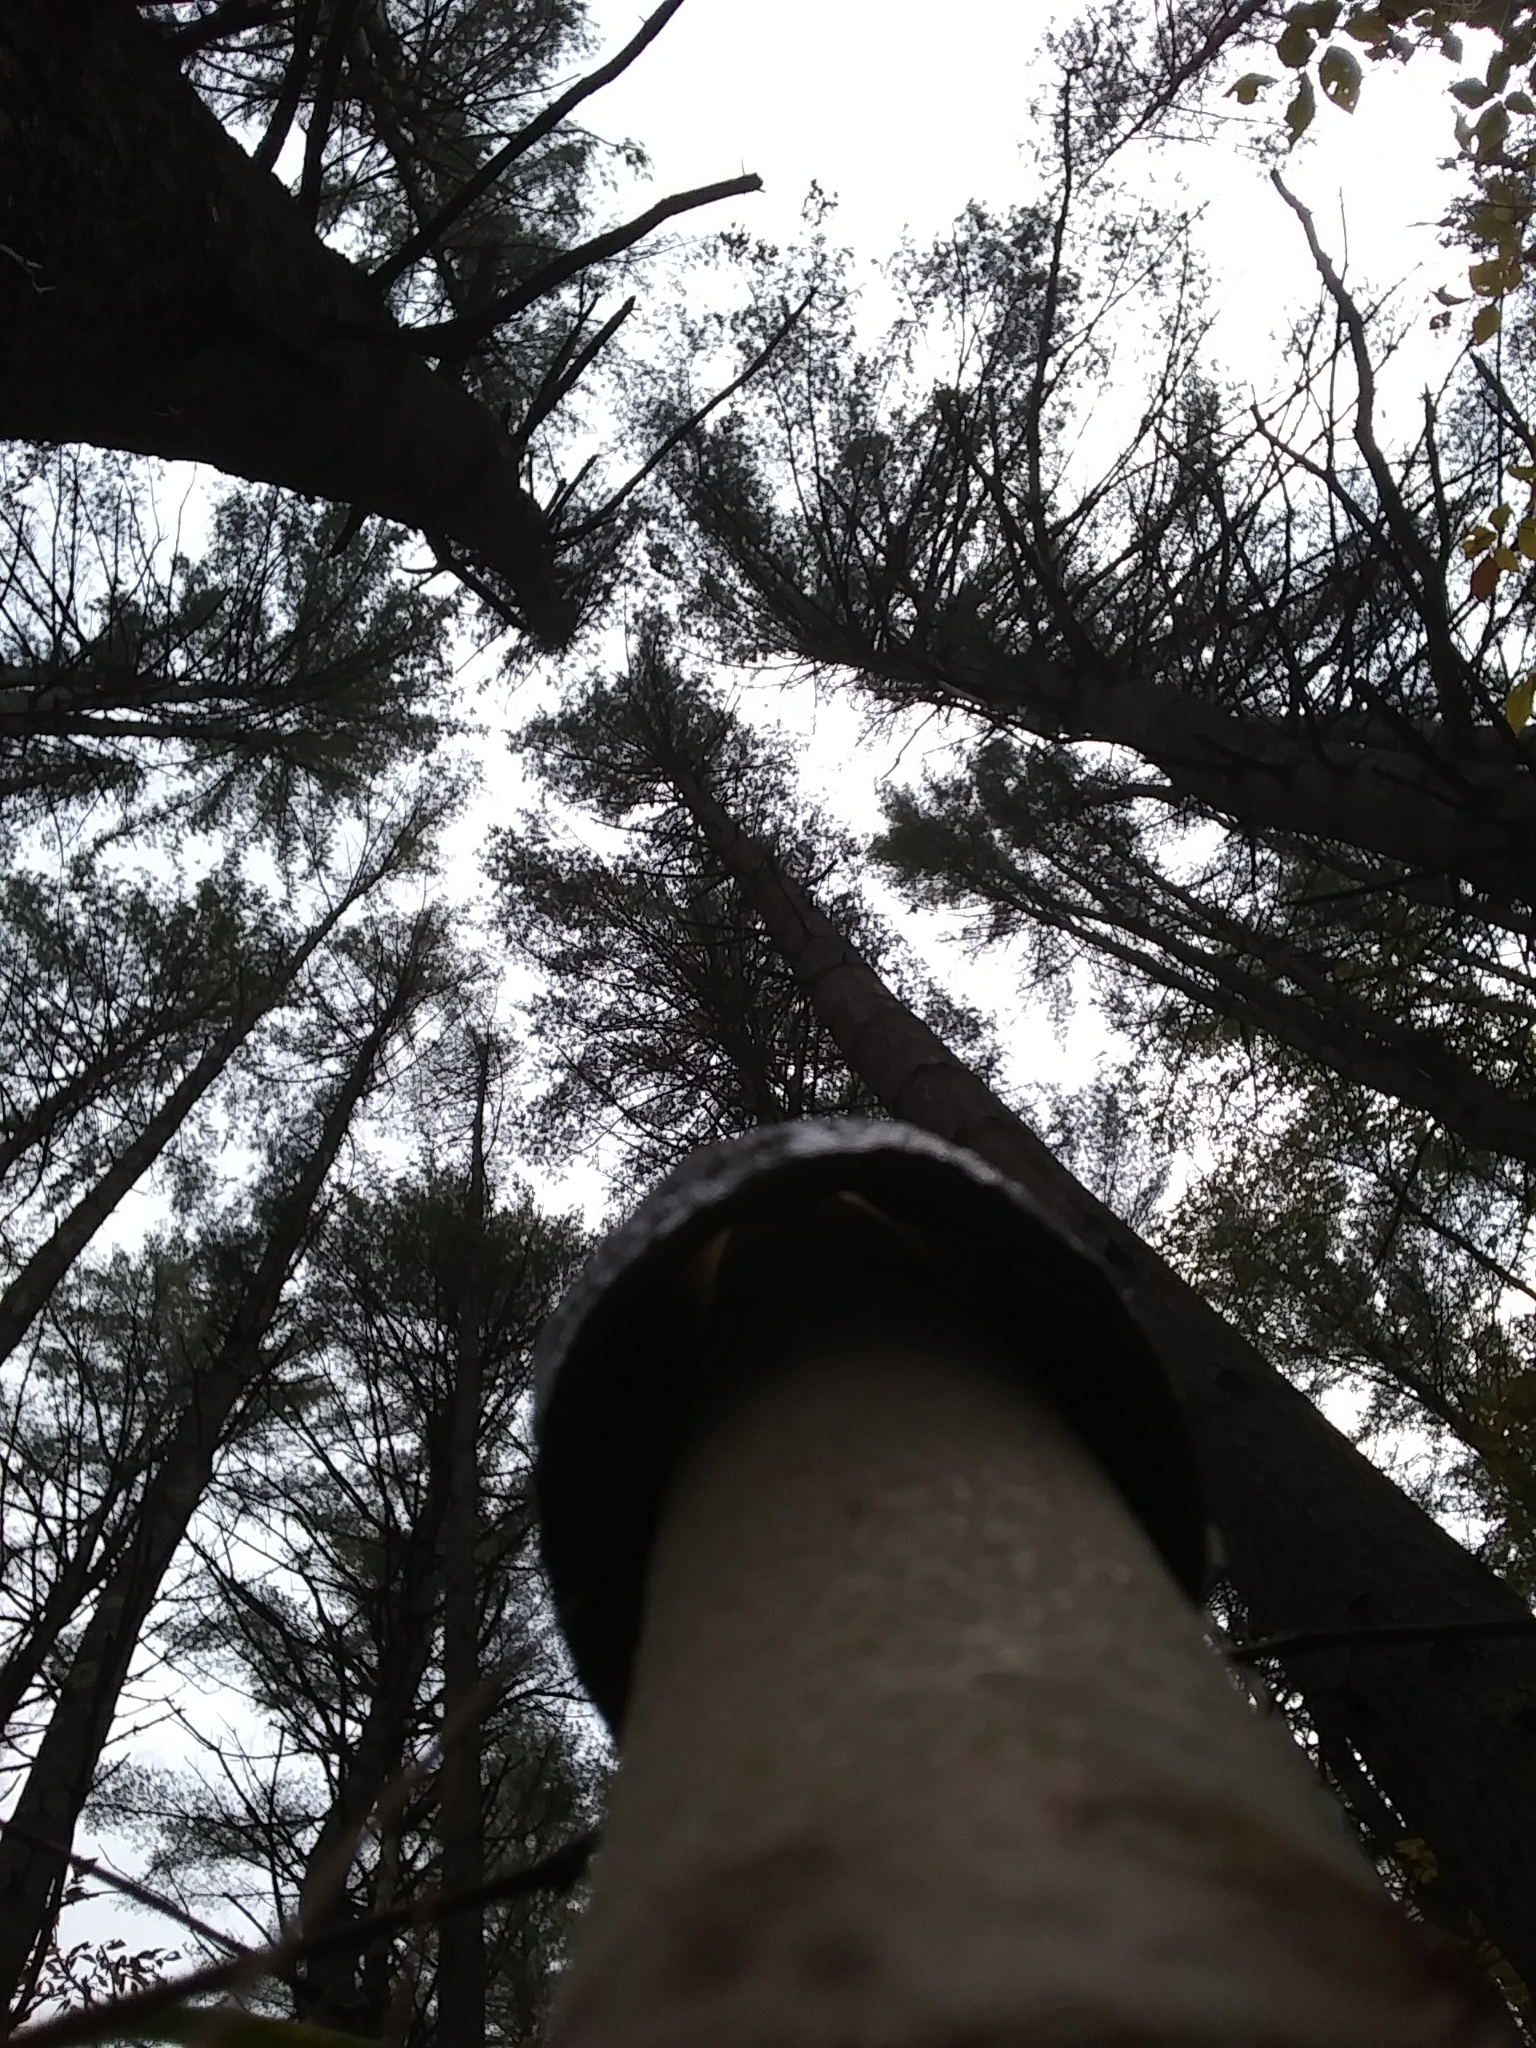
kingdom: Fungi
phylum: Basidiomycota
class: Agaricomycetes
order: Phallales
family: Phallaceae
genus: Phallus
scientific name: Phallus ravenelii
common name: Ravenel's stinkhorn
